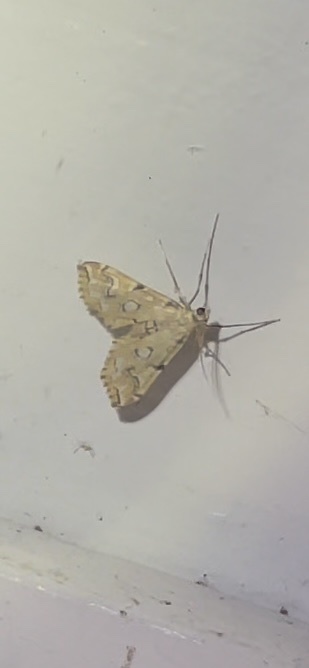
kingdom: Animalia
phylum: Arthropoda
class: Insecta
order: Lepidoptera
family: Crambidae
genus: Elophila
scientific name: Elophila icciusalis
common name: Pondside pyralid moth
